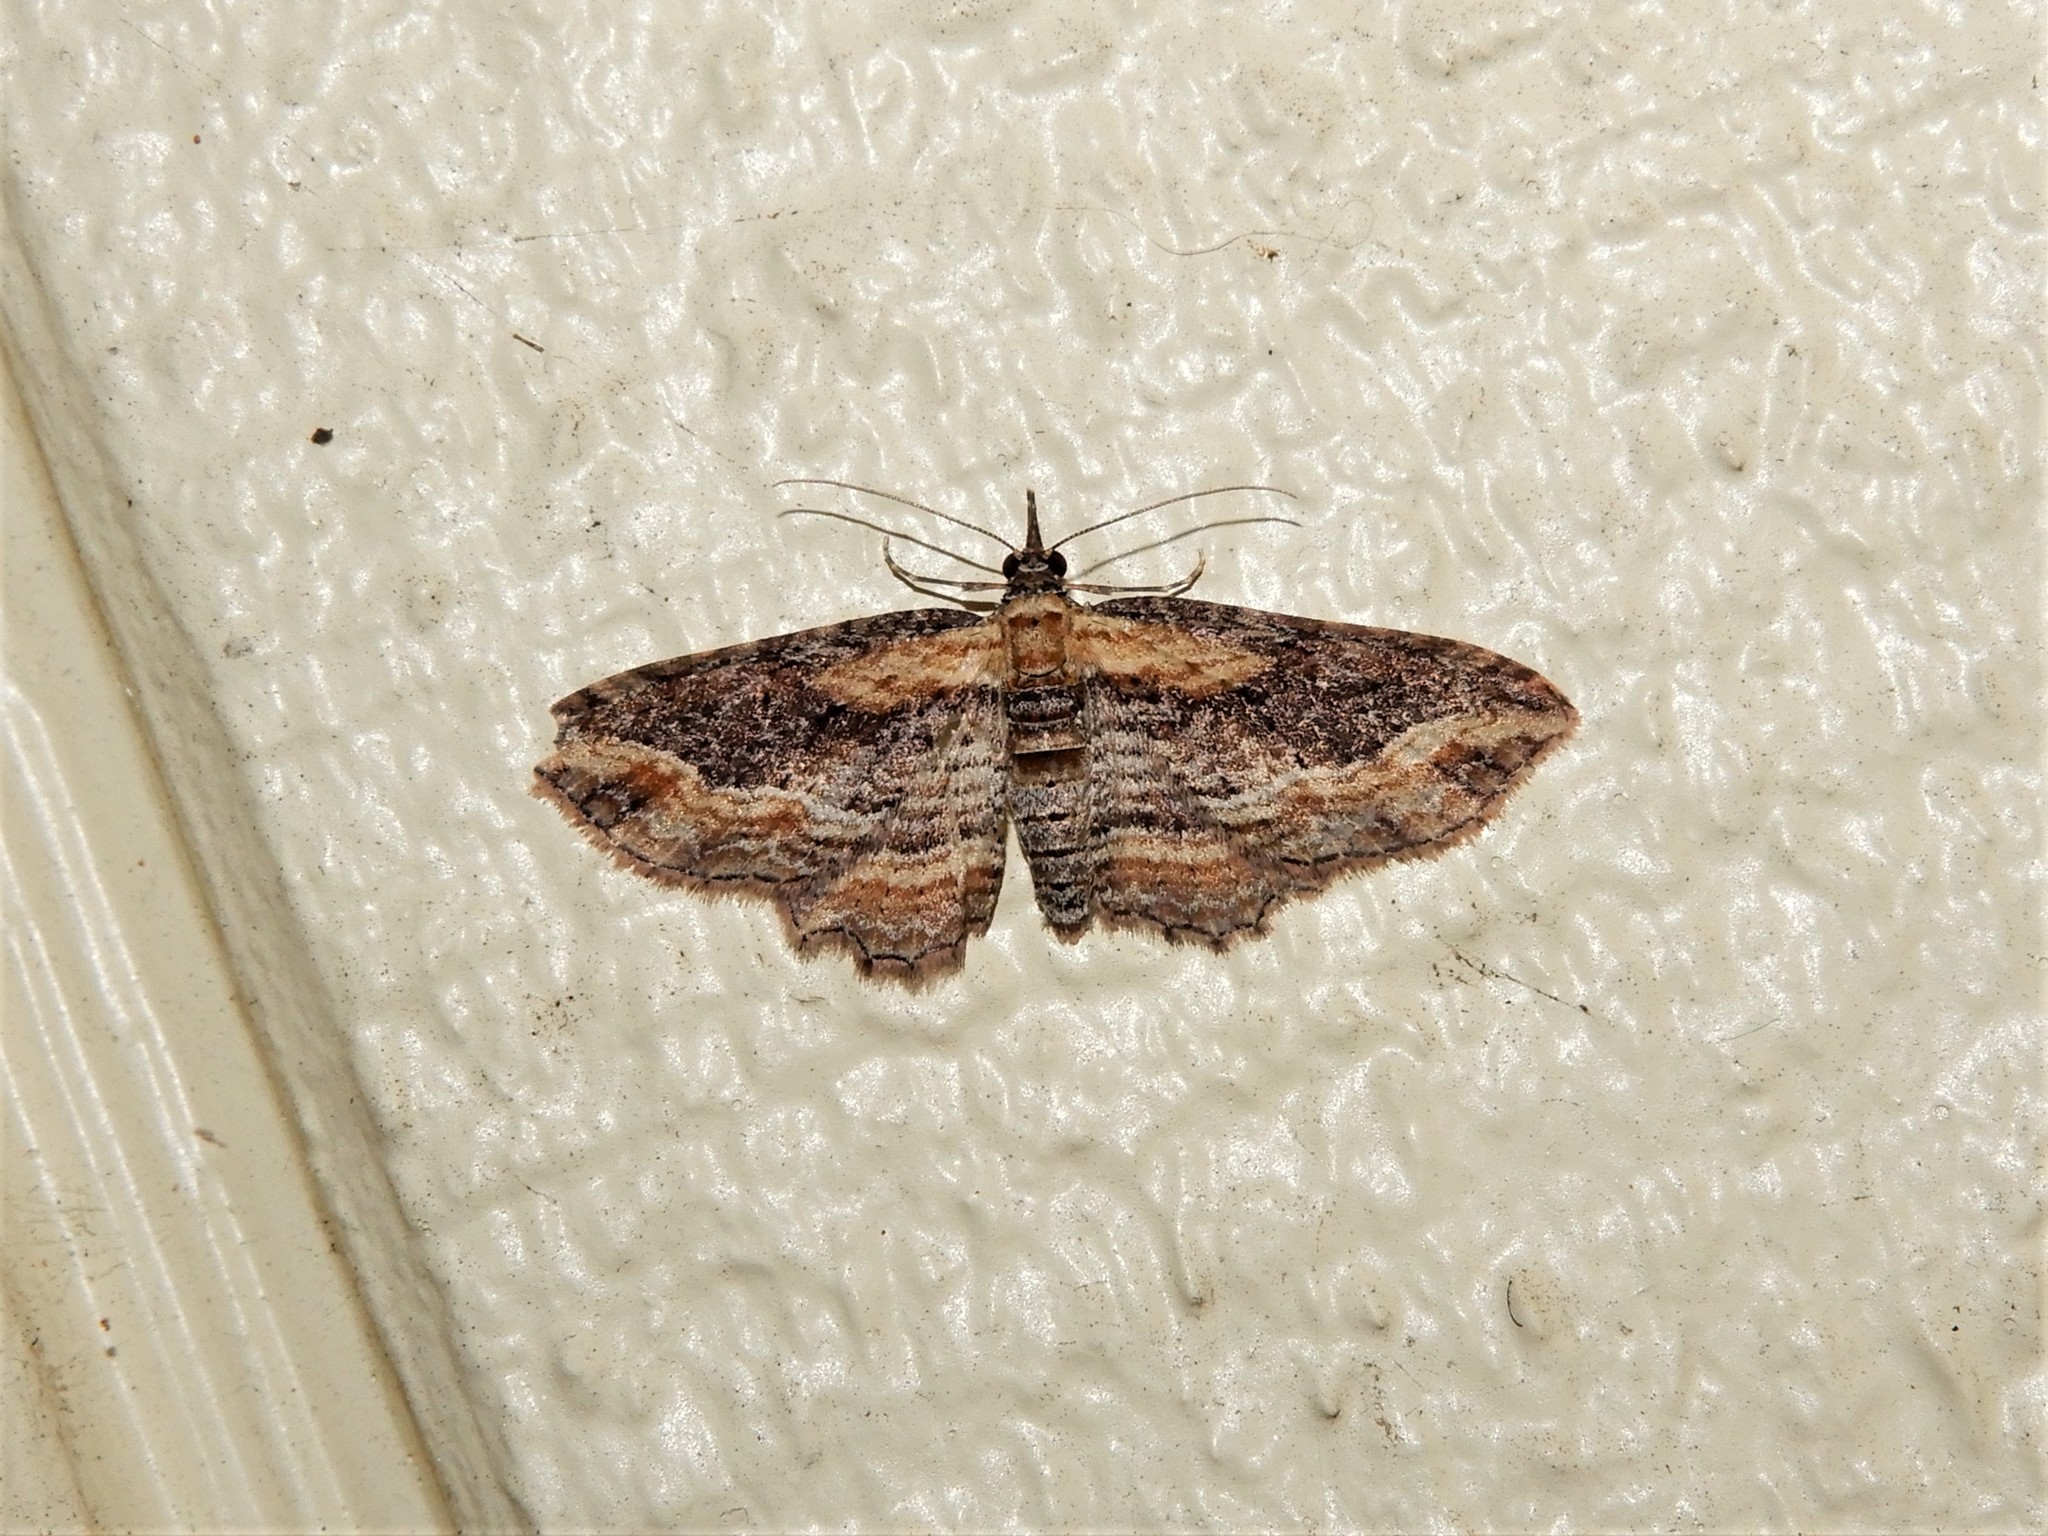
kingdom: Animalia
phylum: Arthropoda
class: Insecta
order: Lepidoptera
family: Geometridae
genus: Chloroclystis
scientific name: Chloroclystis filata
